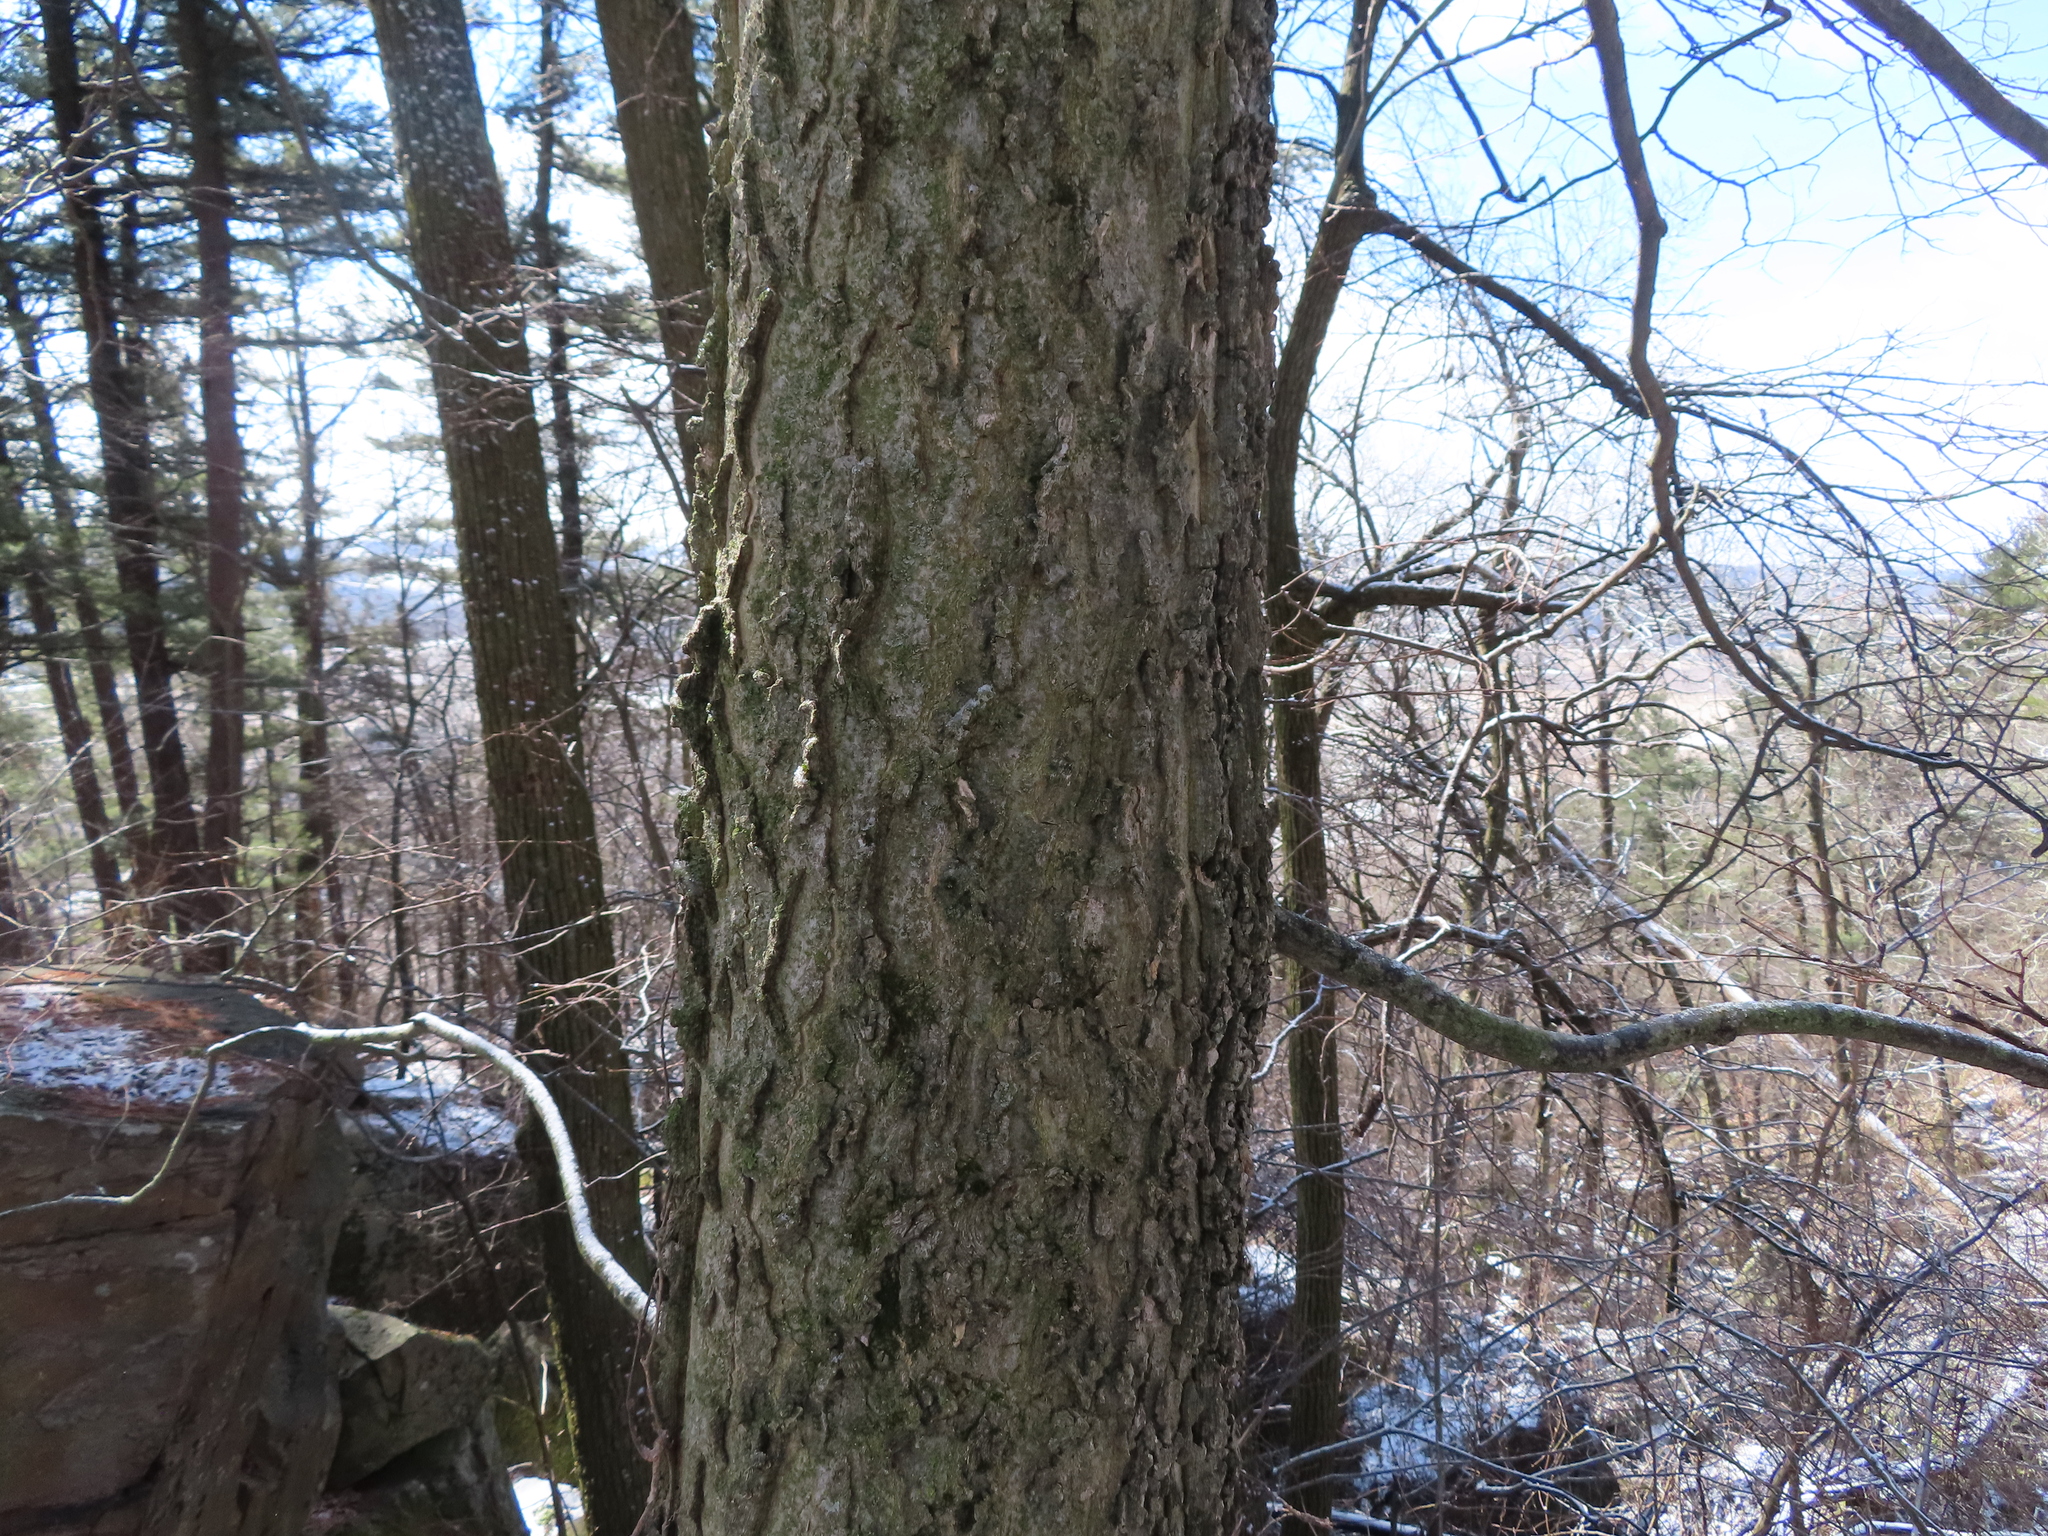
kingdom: Plantae
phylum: Tracheophyta
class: Magnoliopsida
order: Rosales
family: Cannabaceae
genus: Celtis
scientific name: Celtis occidentalis
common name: Common hackberry
